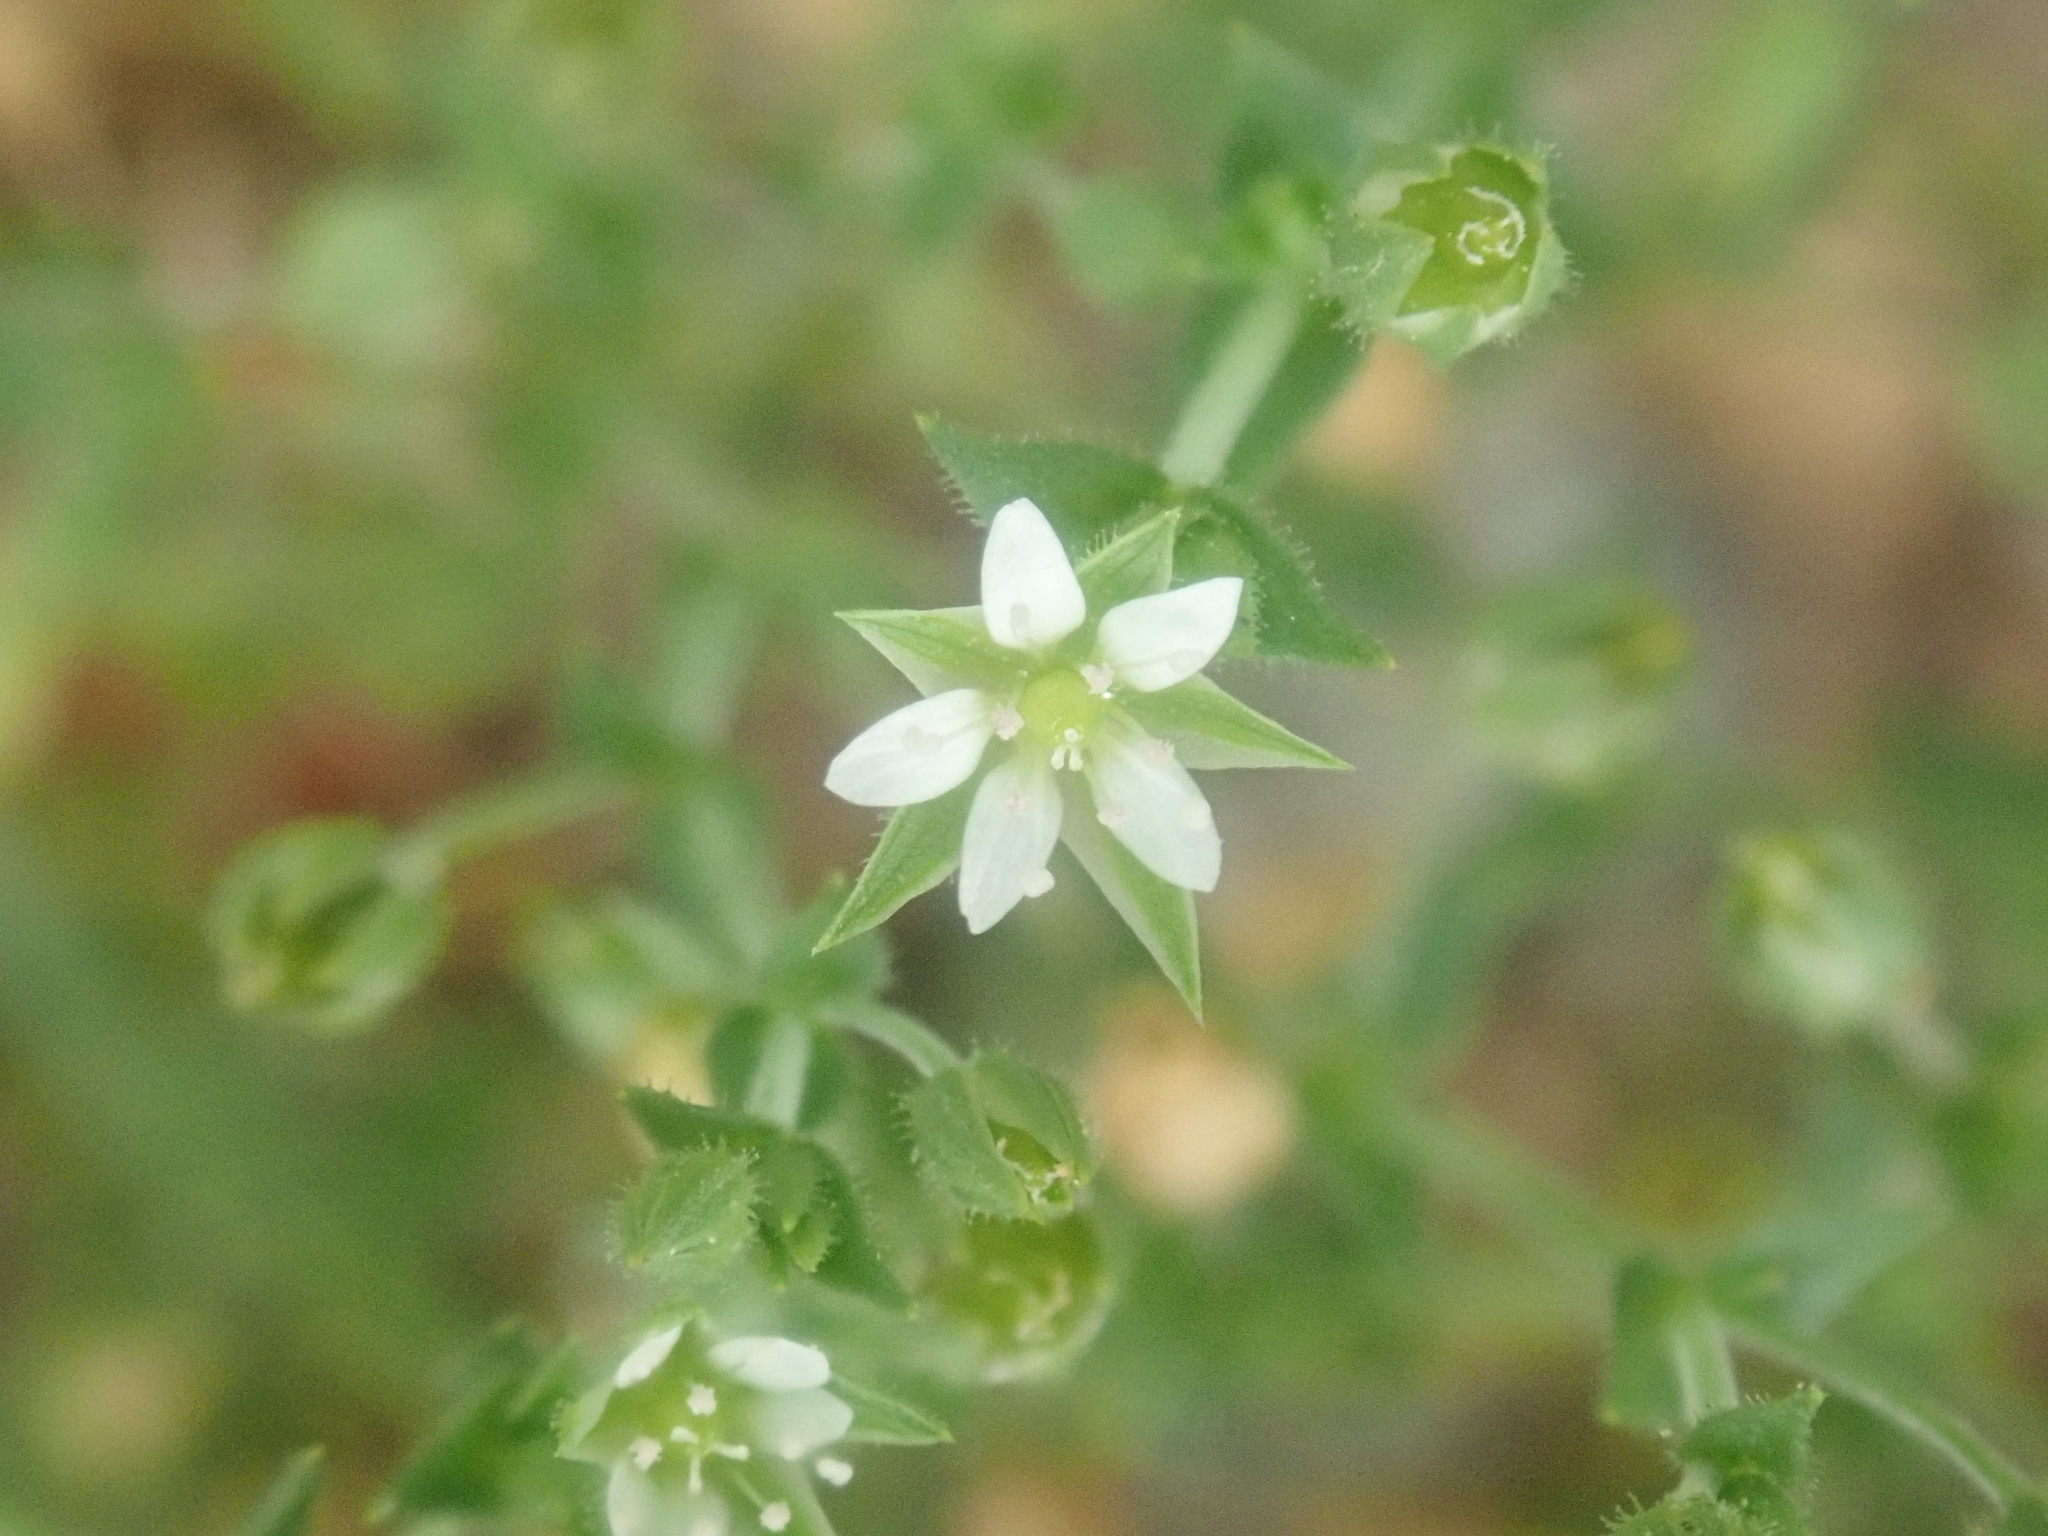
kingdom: Plantae
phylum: Tracheophyta
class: Magnoliopsida
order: Caryophyllales
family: Caryophyllaceae
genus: Arenaria
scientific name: Arenaria serpyllifolia
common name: Thyme-leaved sandwort
